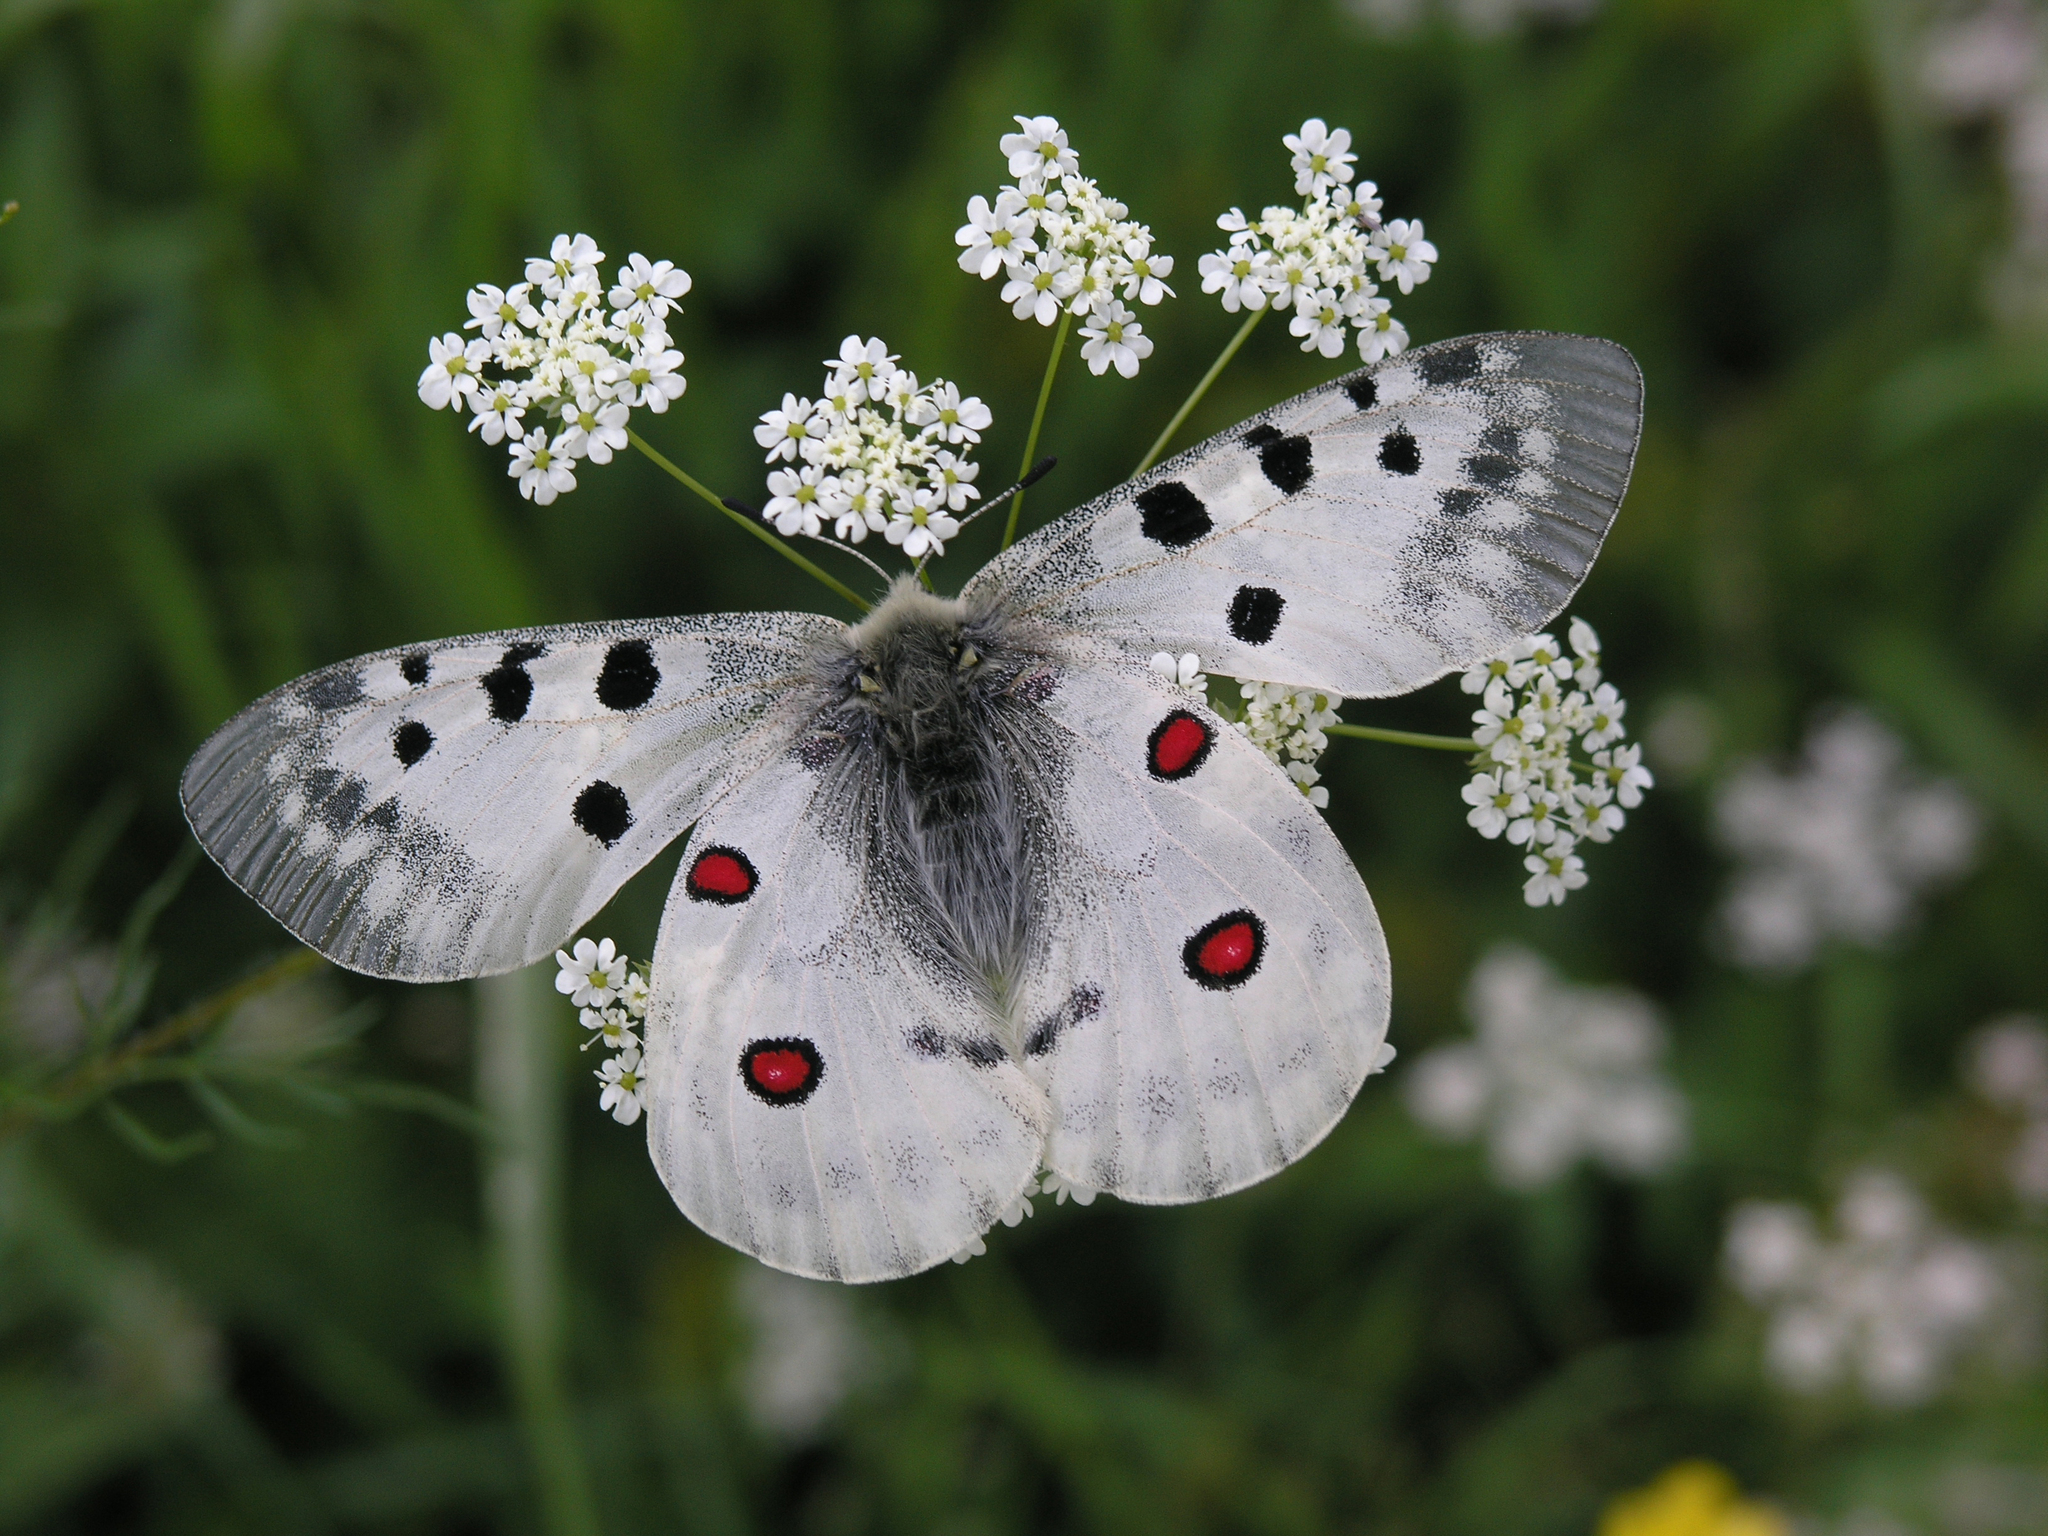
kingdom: Plantae
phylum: Tracheophyta
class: Magnoliopsida
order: Apiales
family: Apiaceae
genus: Carum
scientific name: Carum carvi
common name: Caraway
